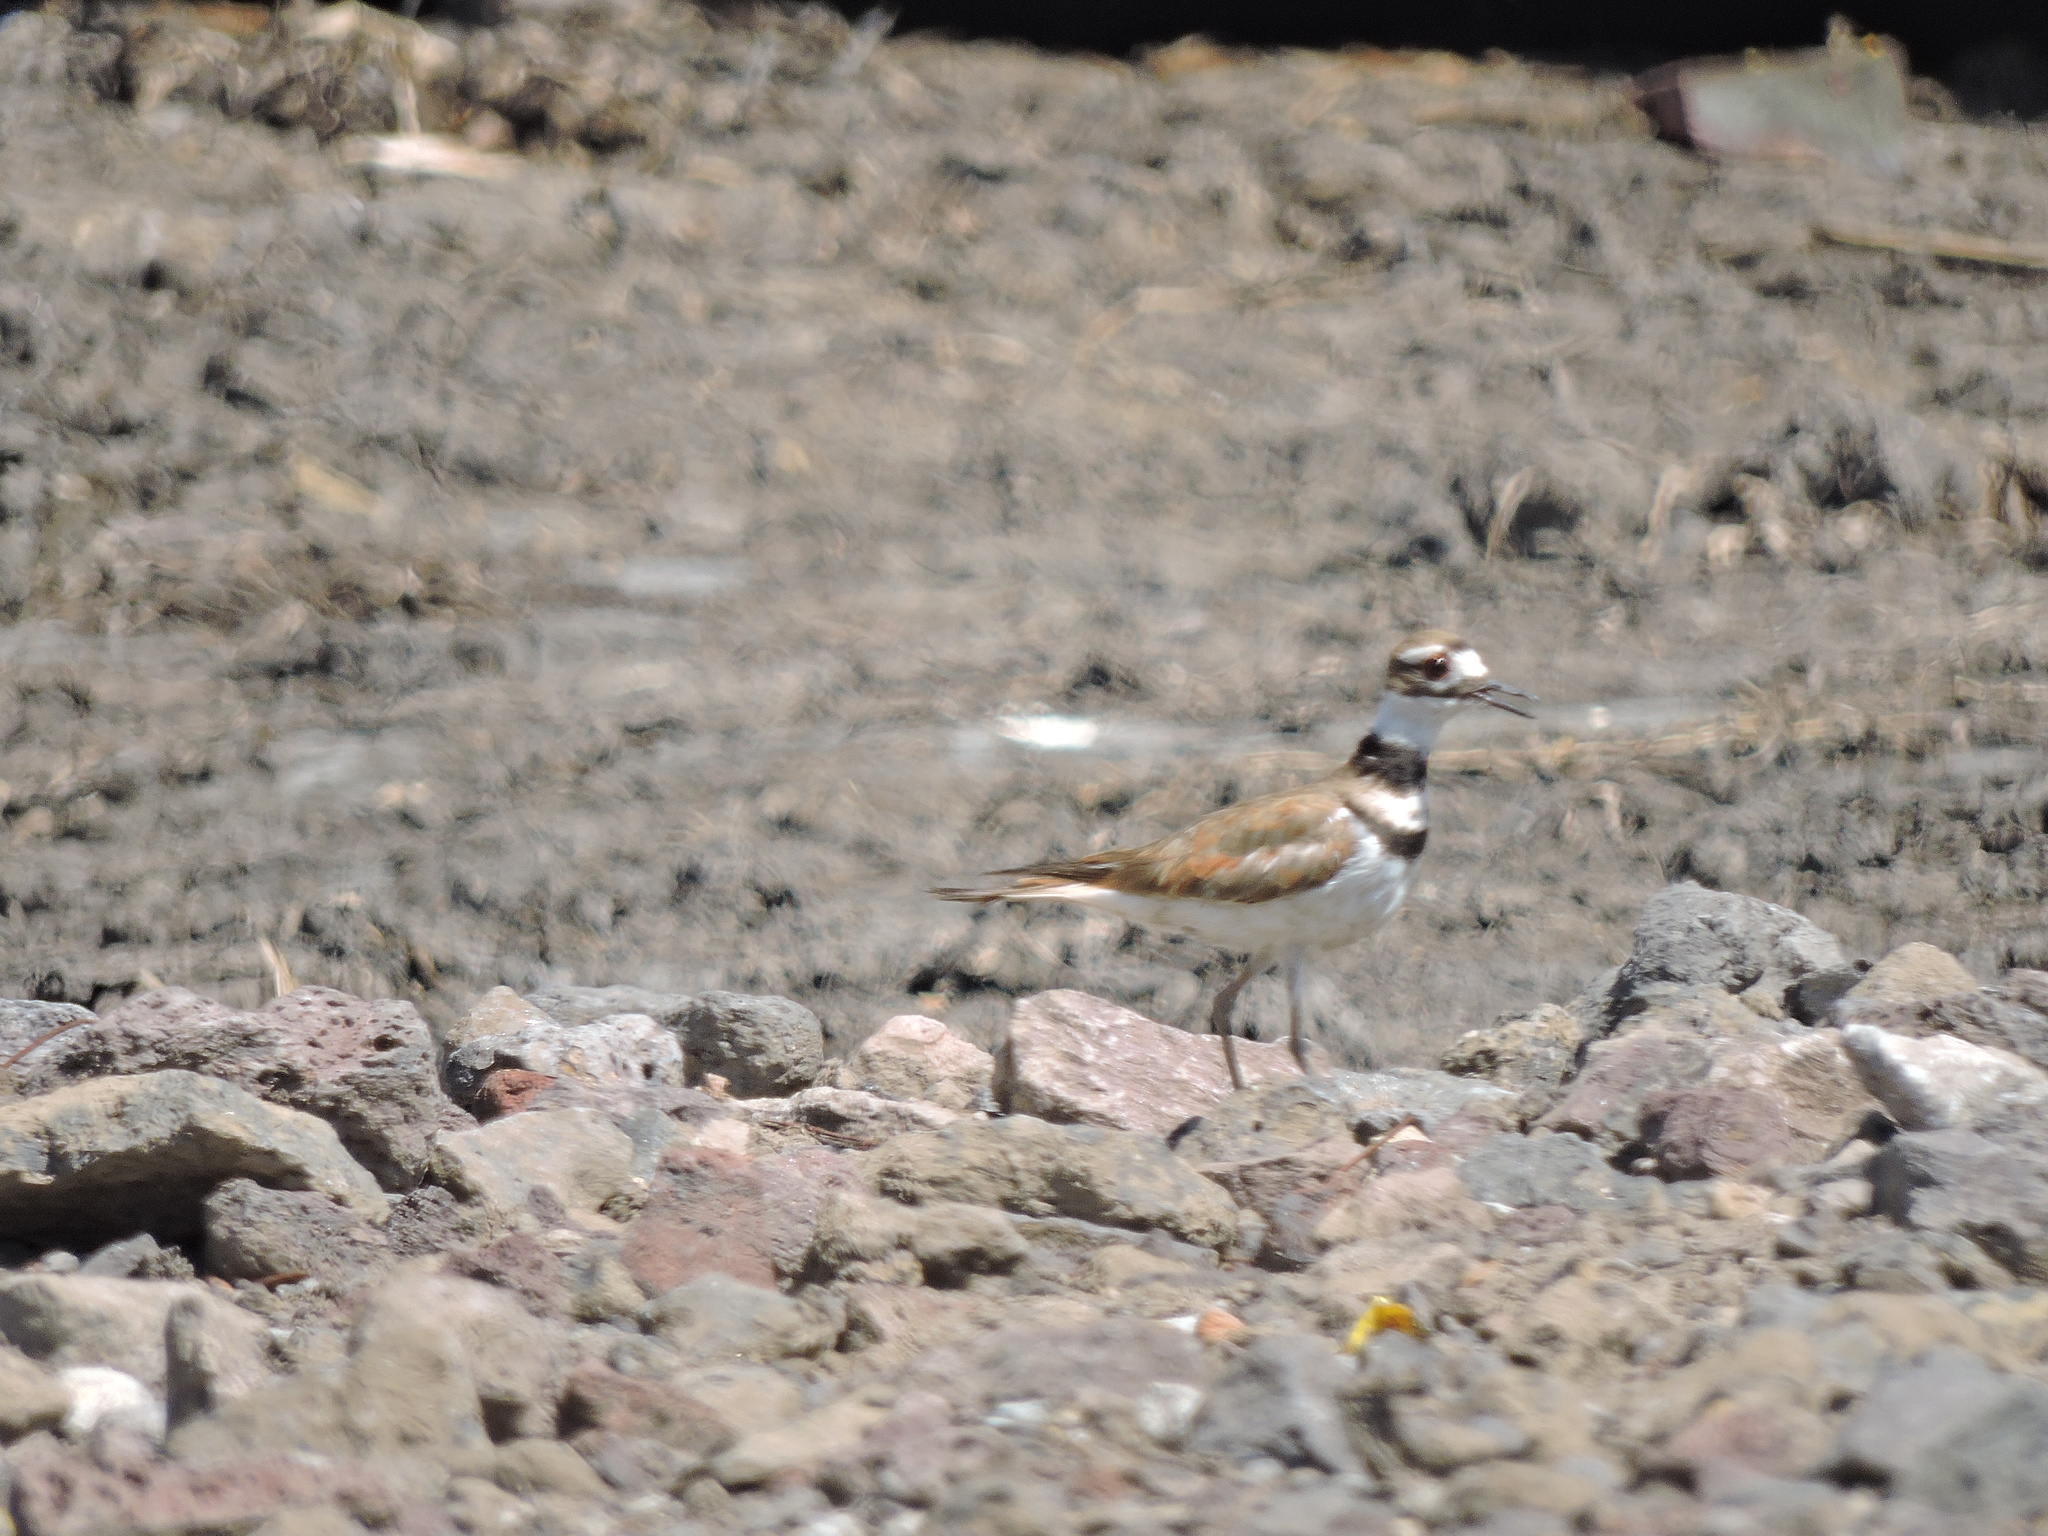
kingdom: Animalia
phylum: Chordata
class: Aves
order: Charadriiformes
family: Charadriidae
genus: Charadrius
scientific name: Charadrius vociferus
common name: Killdeer
